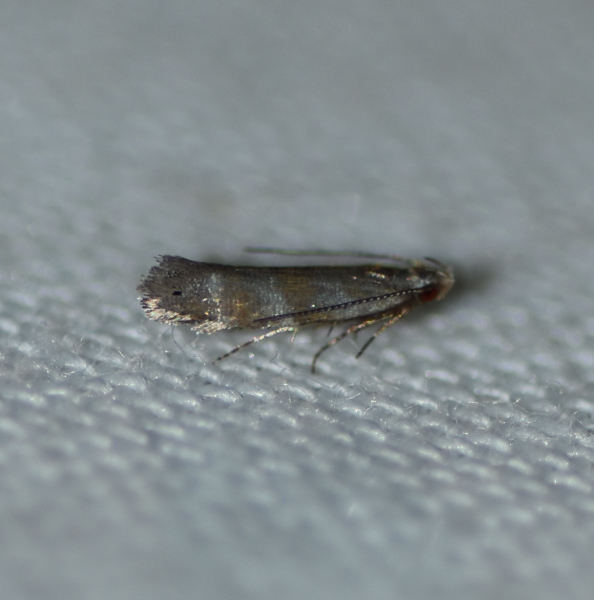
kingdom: Animalia
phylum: Arthropoda
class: Insecta
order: Lepidoptera
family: Gelechiidae
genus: Battaristis
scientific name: Battaristis vittella
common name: Orange stripe-backed moth
